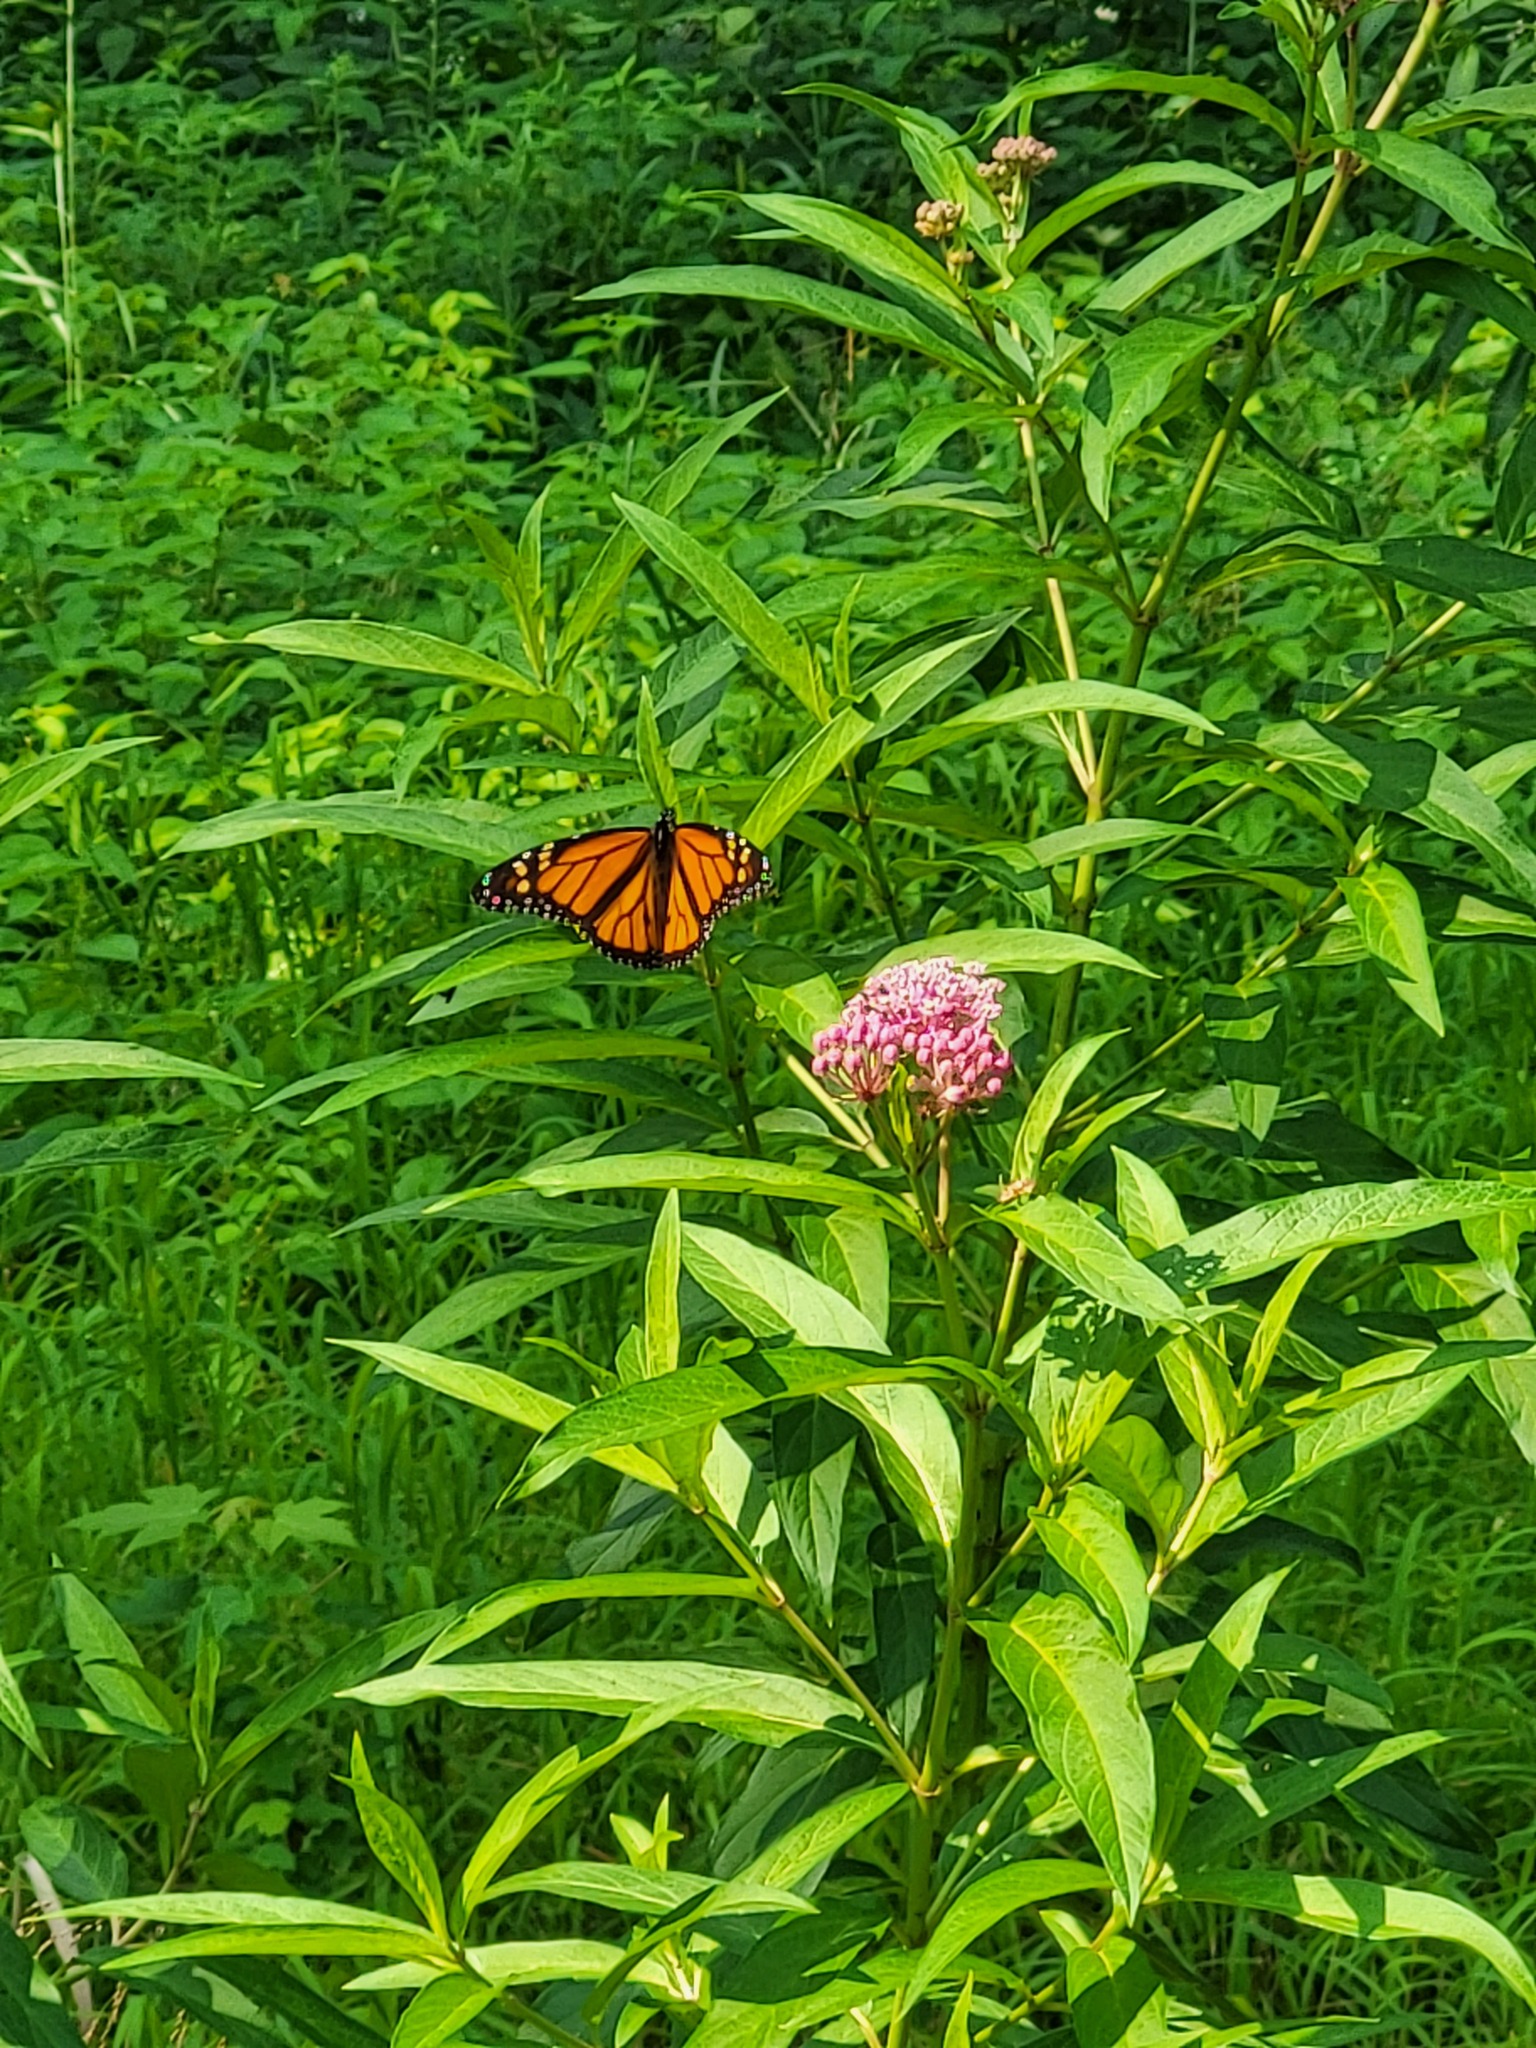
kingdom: Animalia
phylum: Arthropoda
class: Insecta
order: Lepidoptera
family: Nymphalidae
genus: Danaus
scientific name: Danaus plexippus
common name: Monarch
